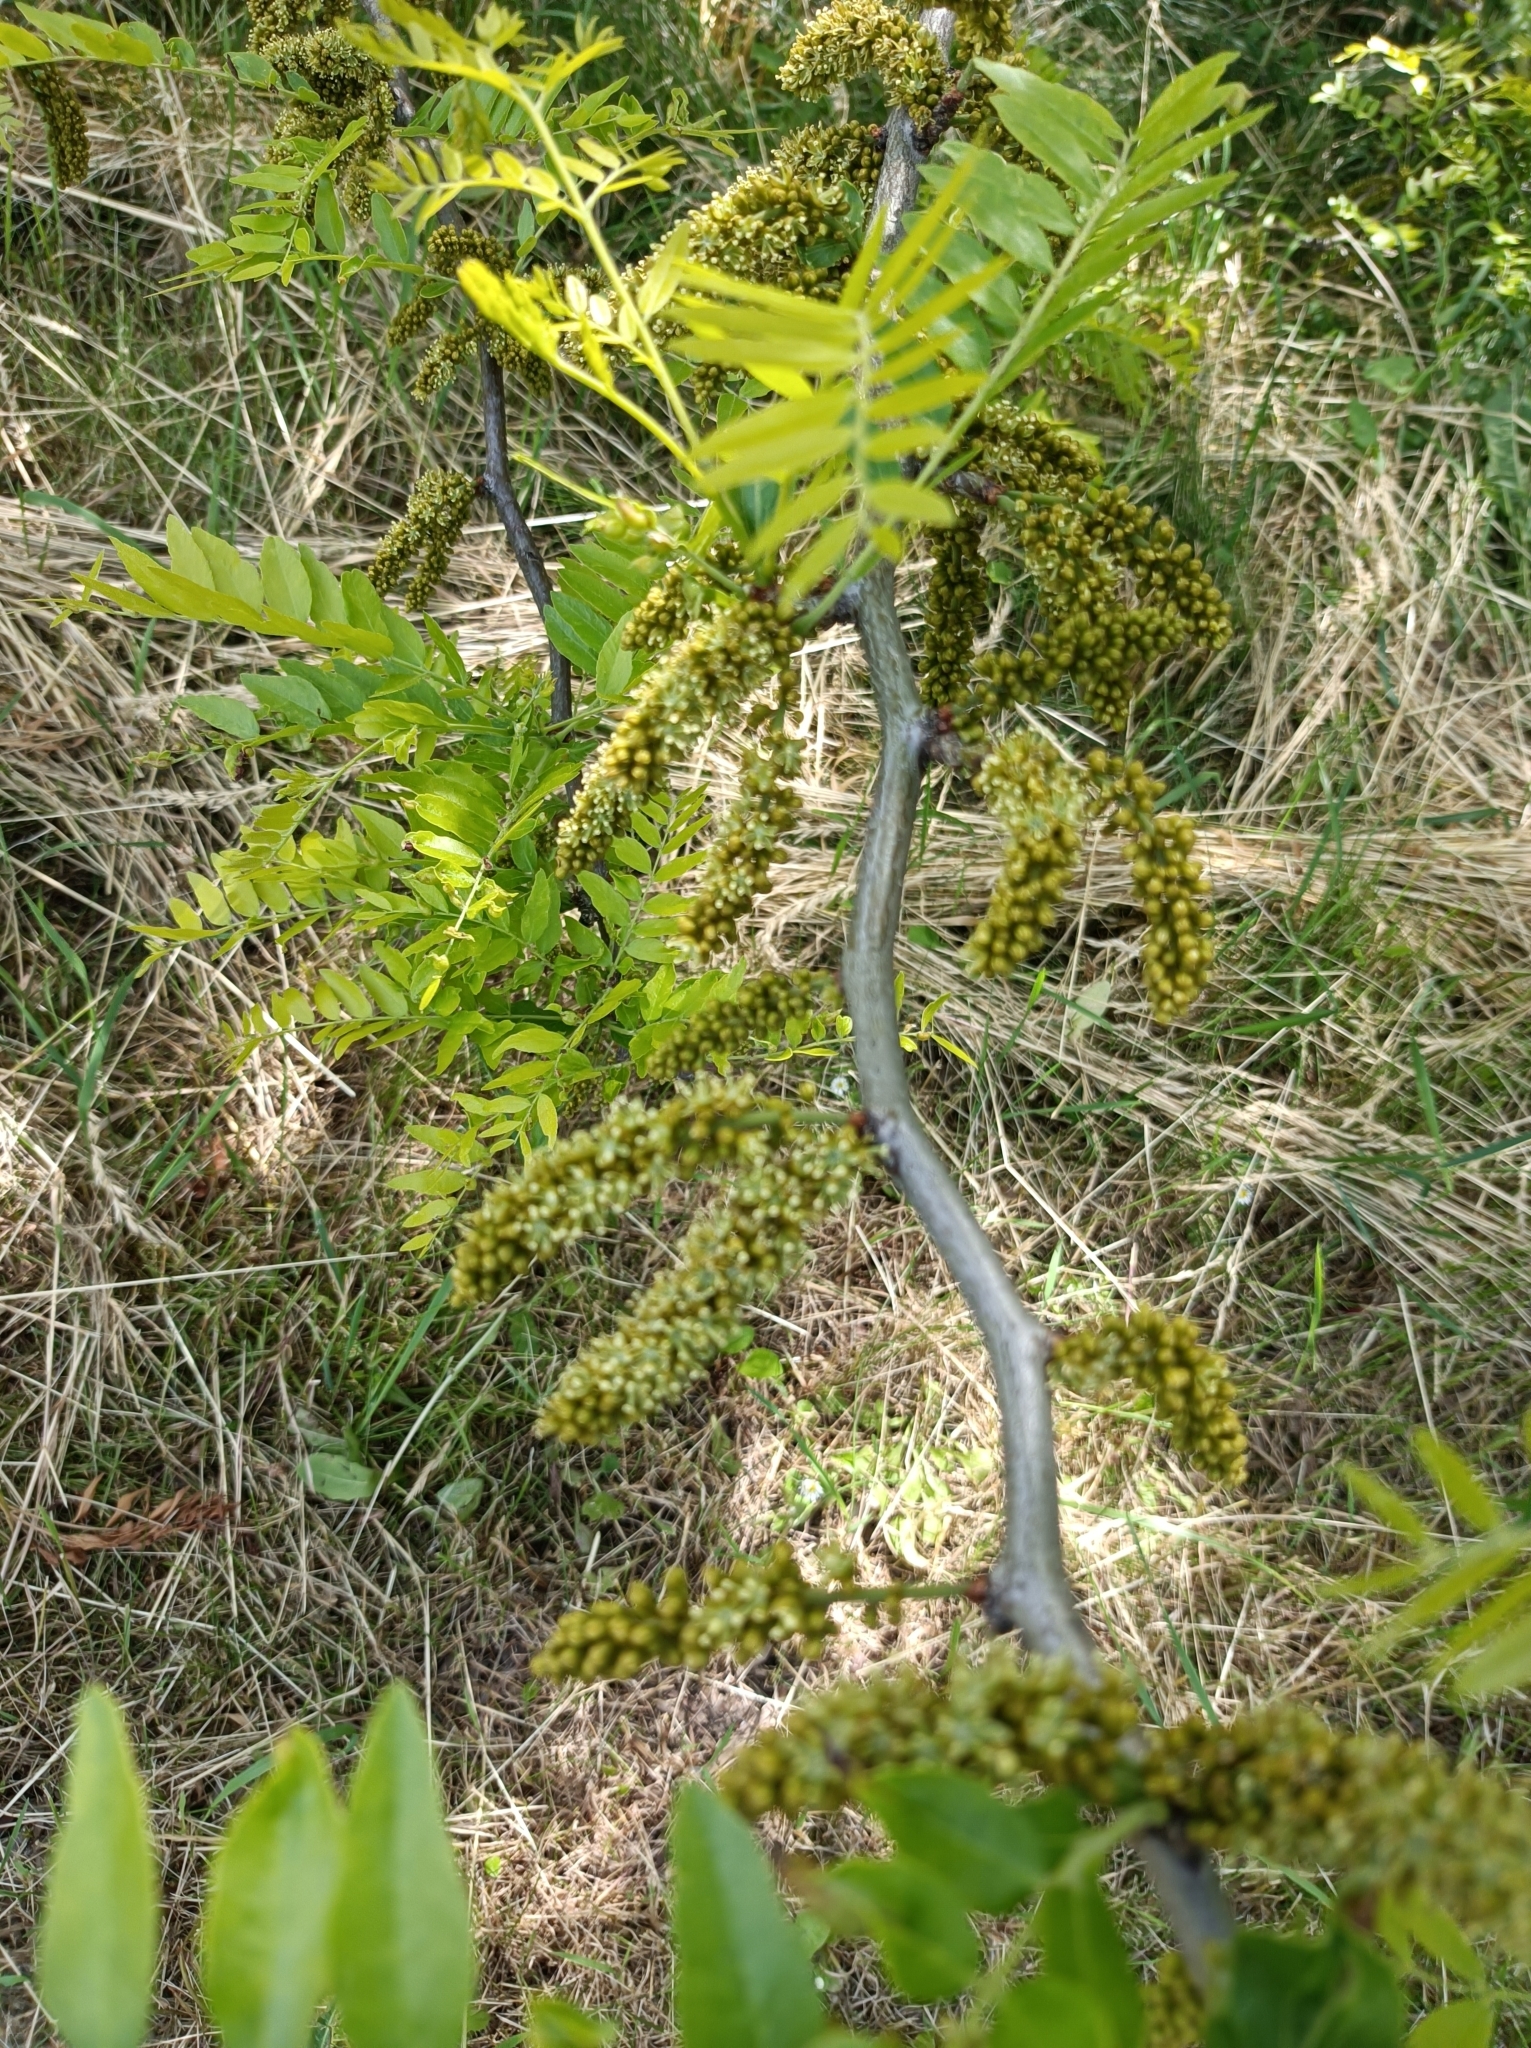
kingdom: Plantae
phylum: Tracheophyta
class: Magnoliopsida
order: Fabales
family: Fabaceae
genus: Gleditsia
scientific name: Gleditsia triacanthos
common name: Common honeylocust
